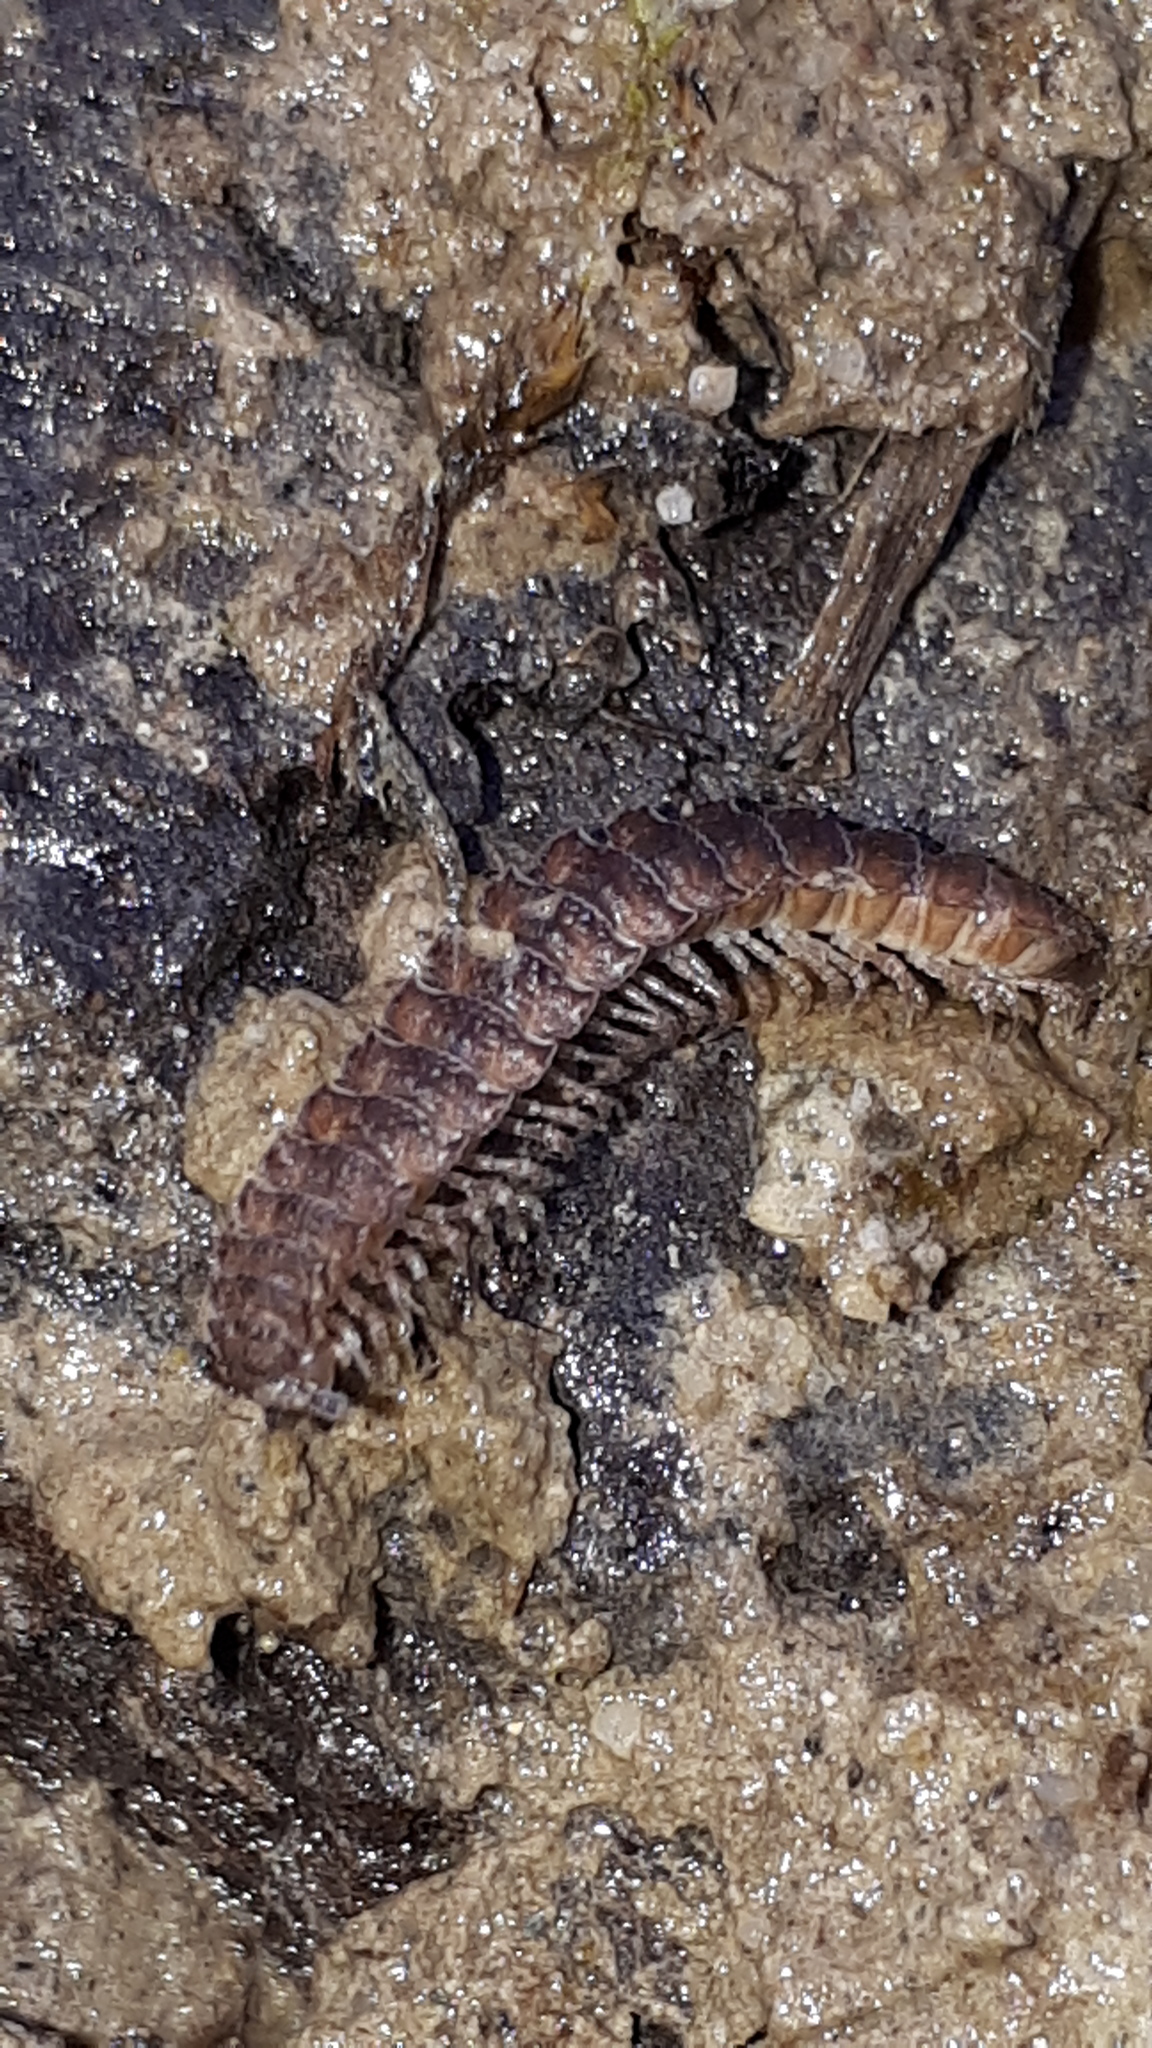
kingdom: Animalia
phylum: Arthropoda
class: Diplopoda
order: Polydesmida
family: Polydesmidae
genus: Polydesmus
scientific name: Polydesmus complanatus
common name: Flat-backed millipede
